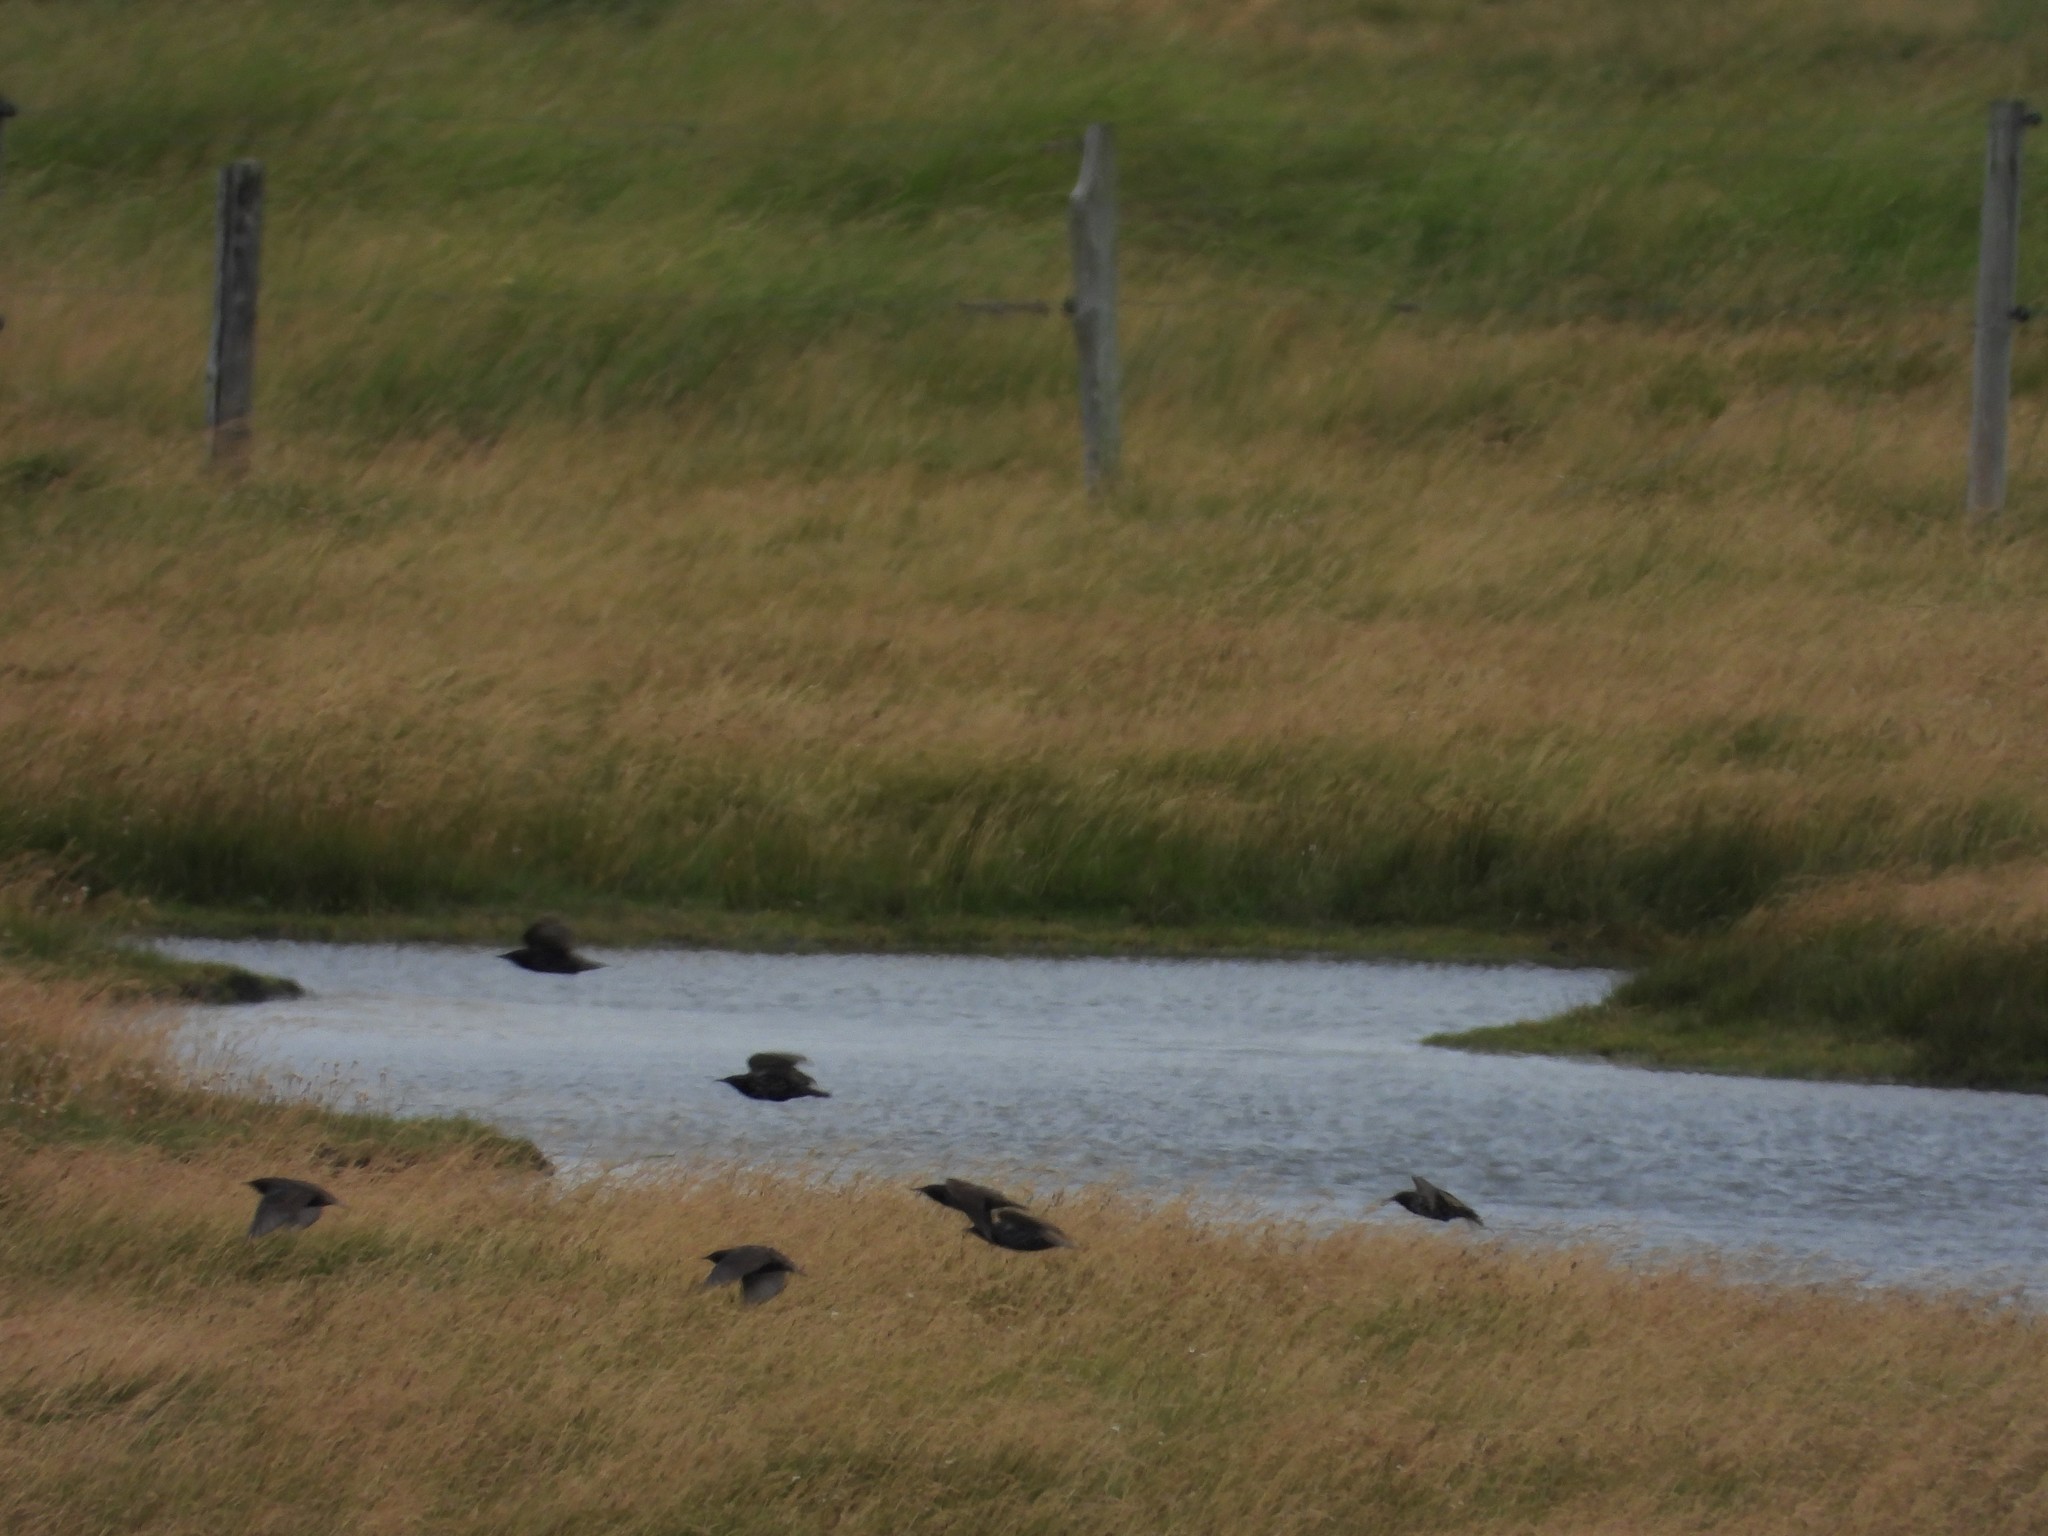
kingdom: Animalia
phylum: Chordata
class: Aves
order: Passeriformes
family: Sturnidae
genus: Sturnus
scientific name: Sturnus vulgaris
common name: Common starling
